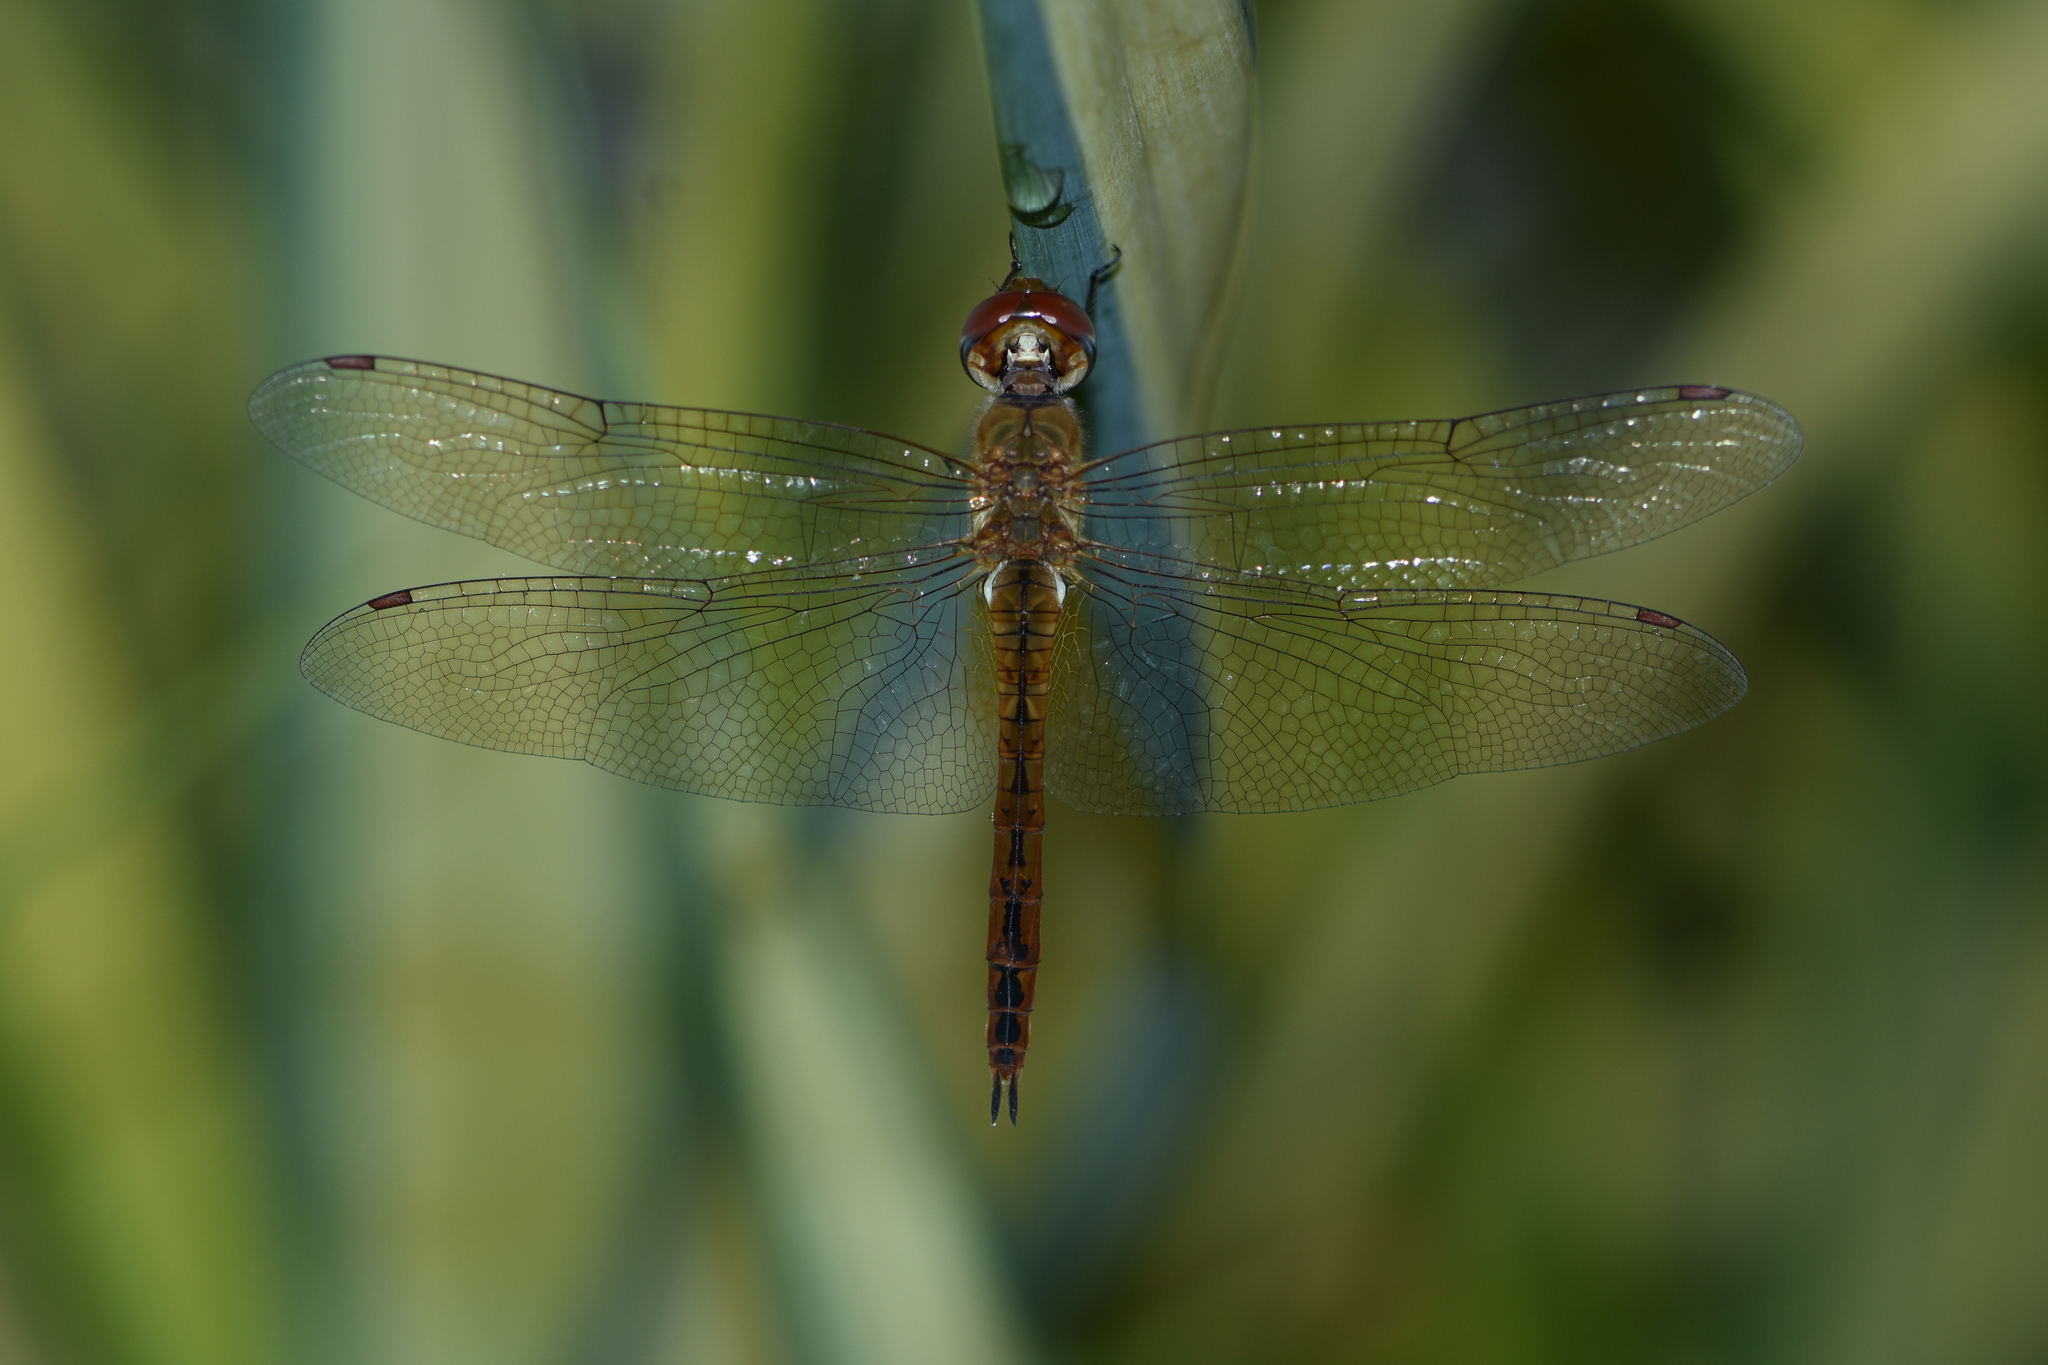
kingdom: Animalia
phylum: Arthropoda
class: Insecta
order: Odonata
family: Libellulidae
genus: Pantala
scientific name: Pantala flavescens
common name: Wandering glider
